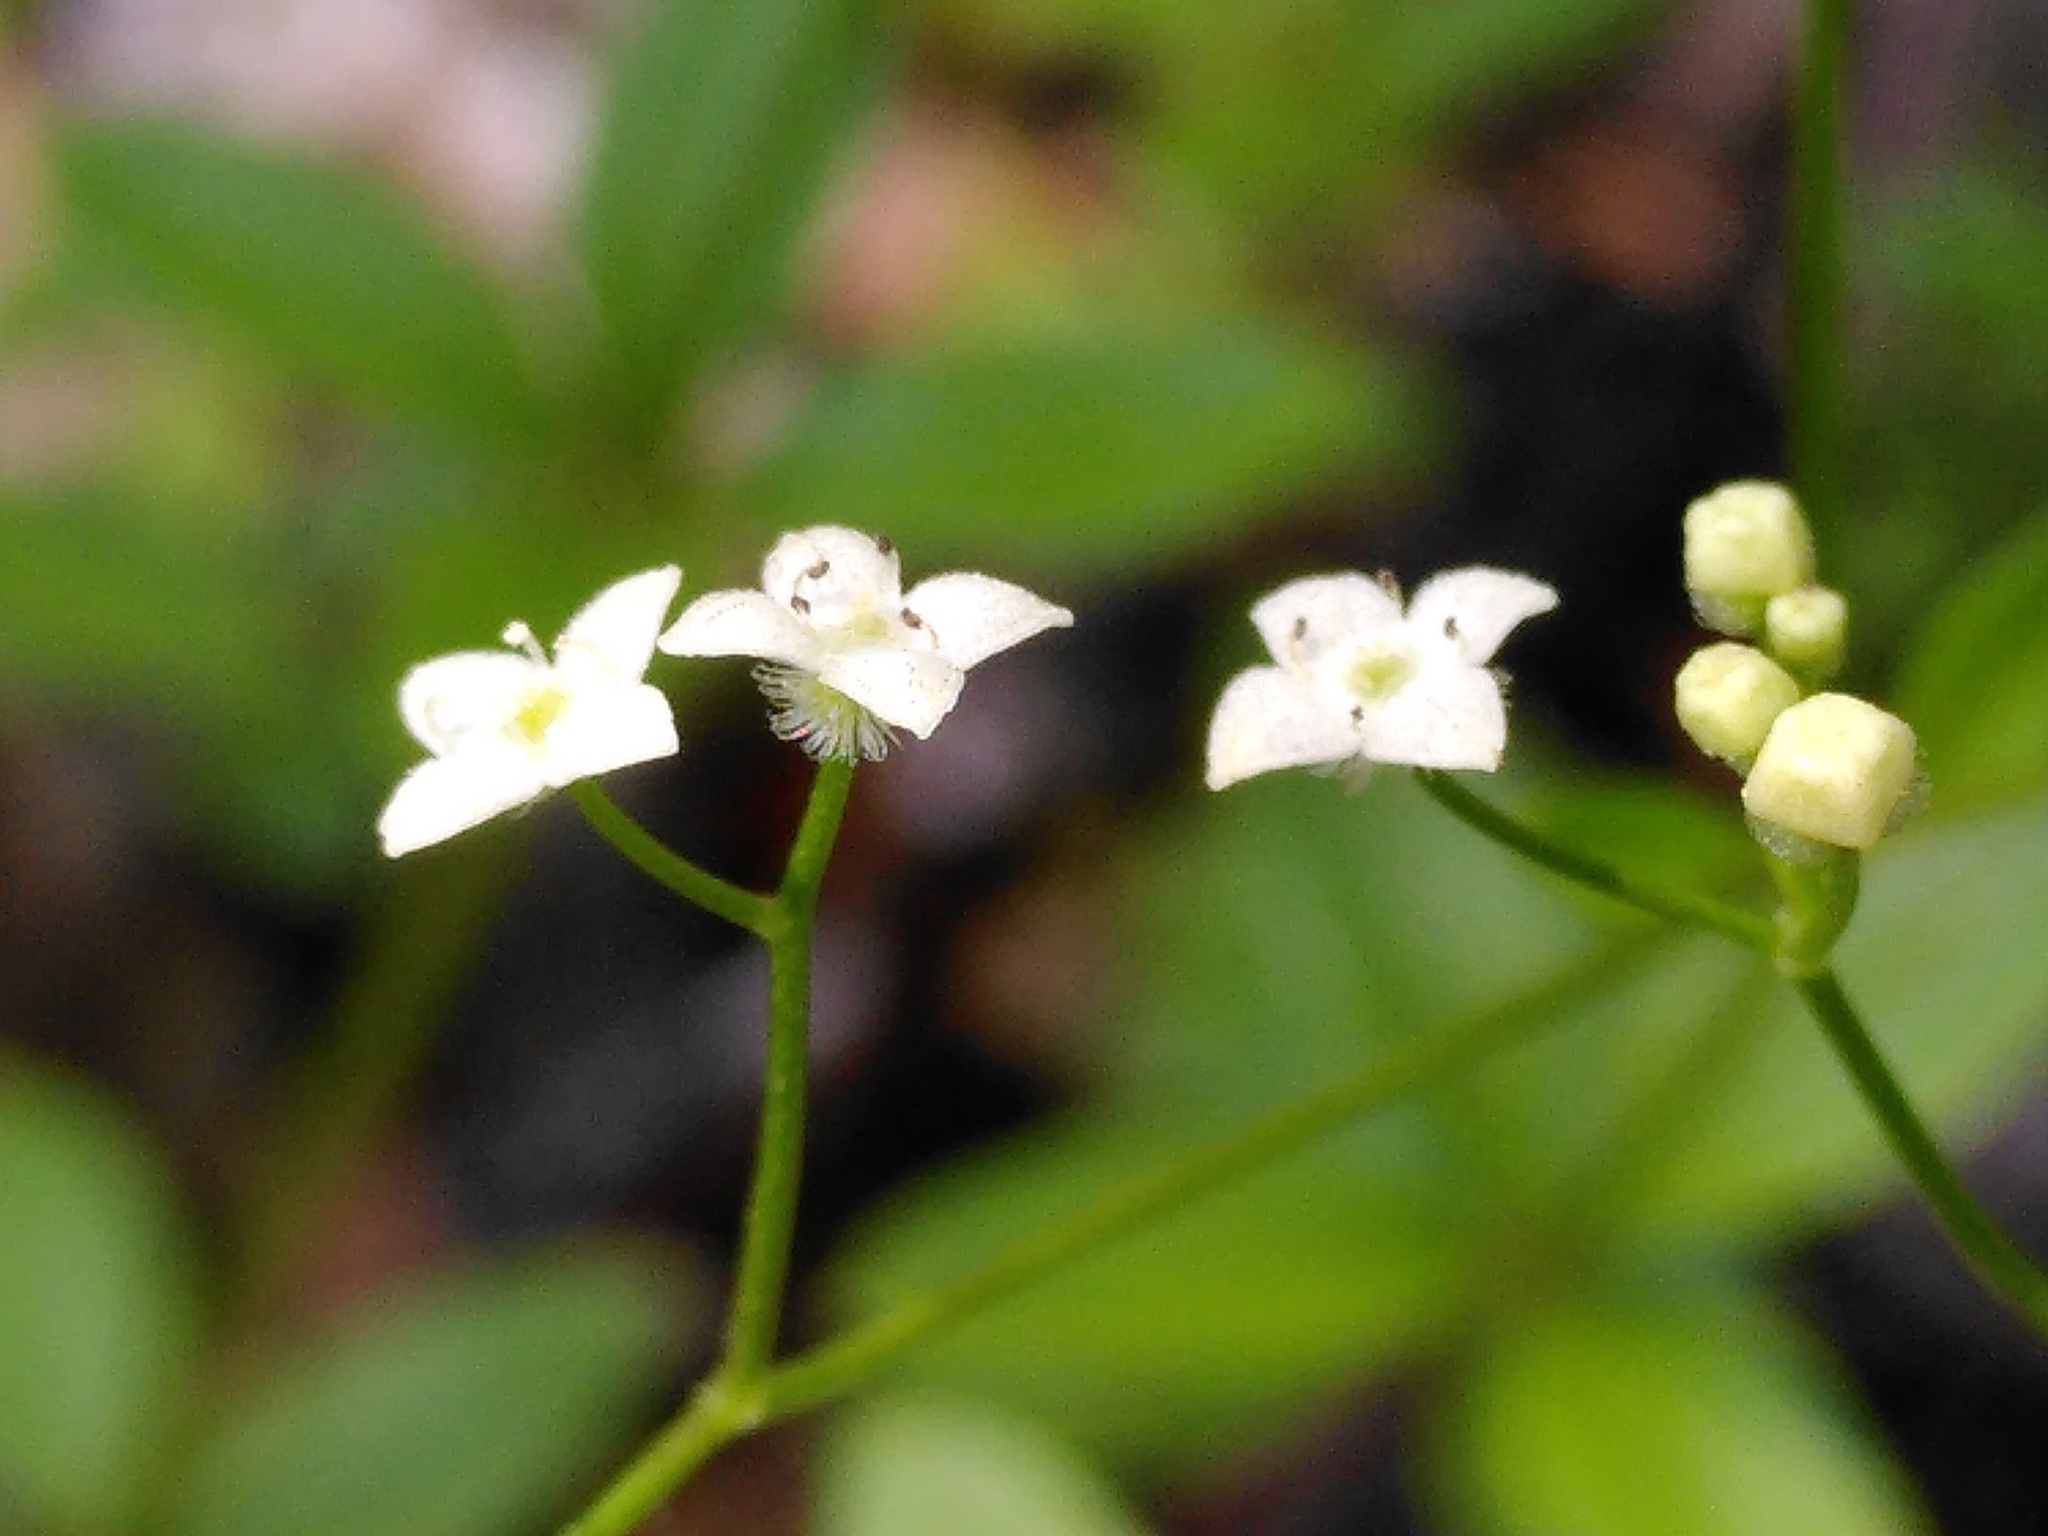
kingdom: Plantae
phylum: Tracheophyta
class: Magnoliopsida
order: Gentianales
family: Rubiaceae
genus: Galium
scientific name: Galium rotundifolium
